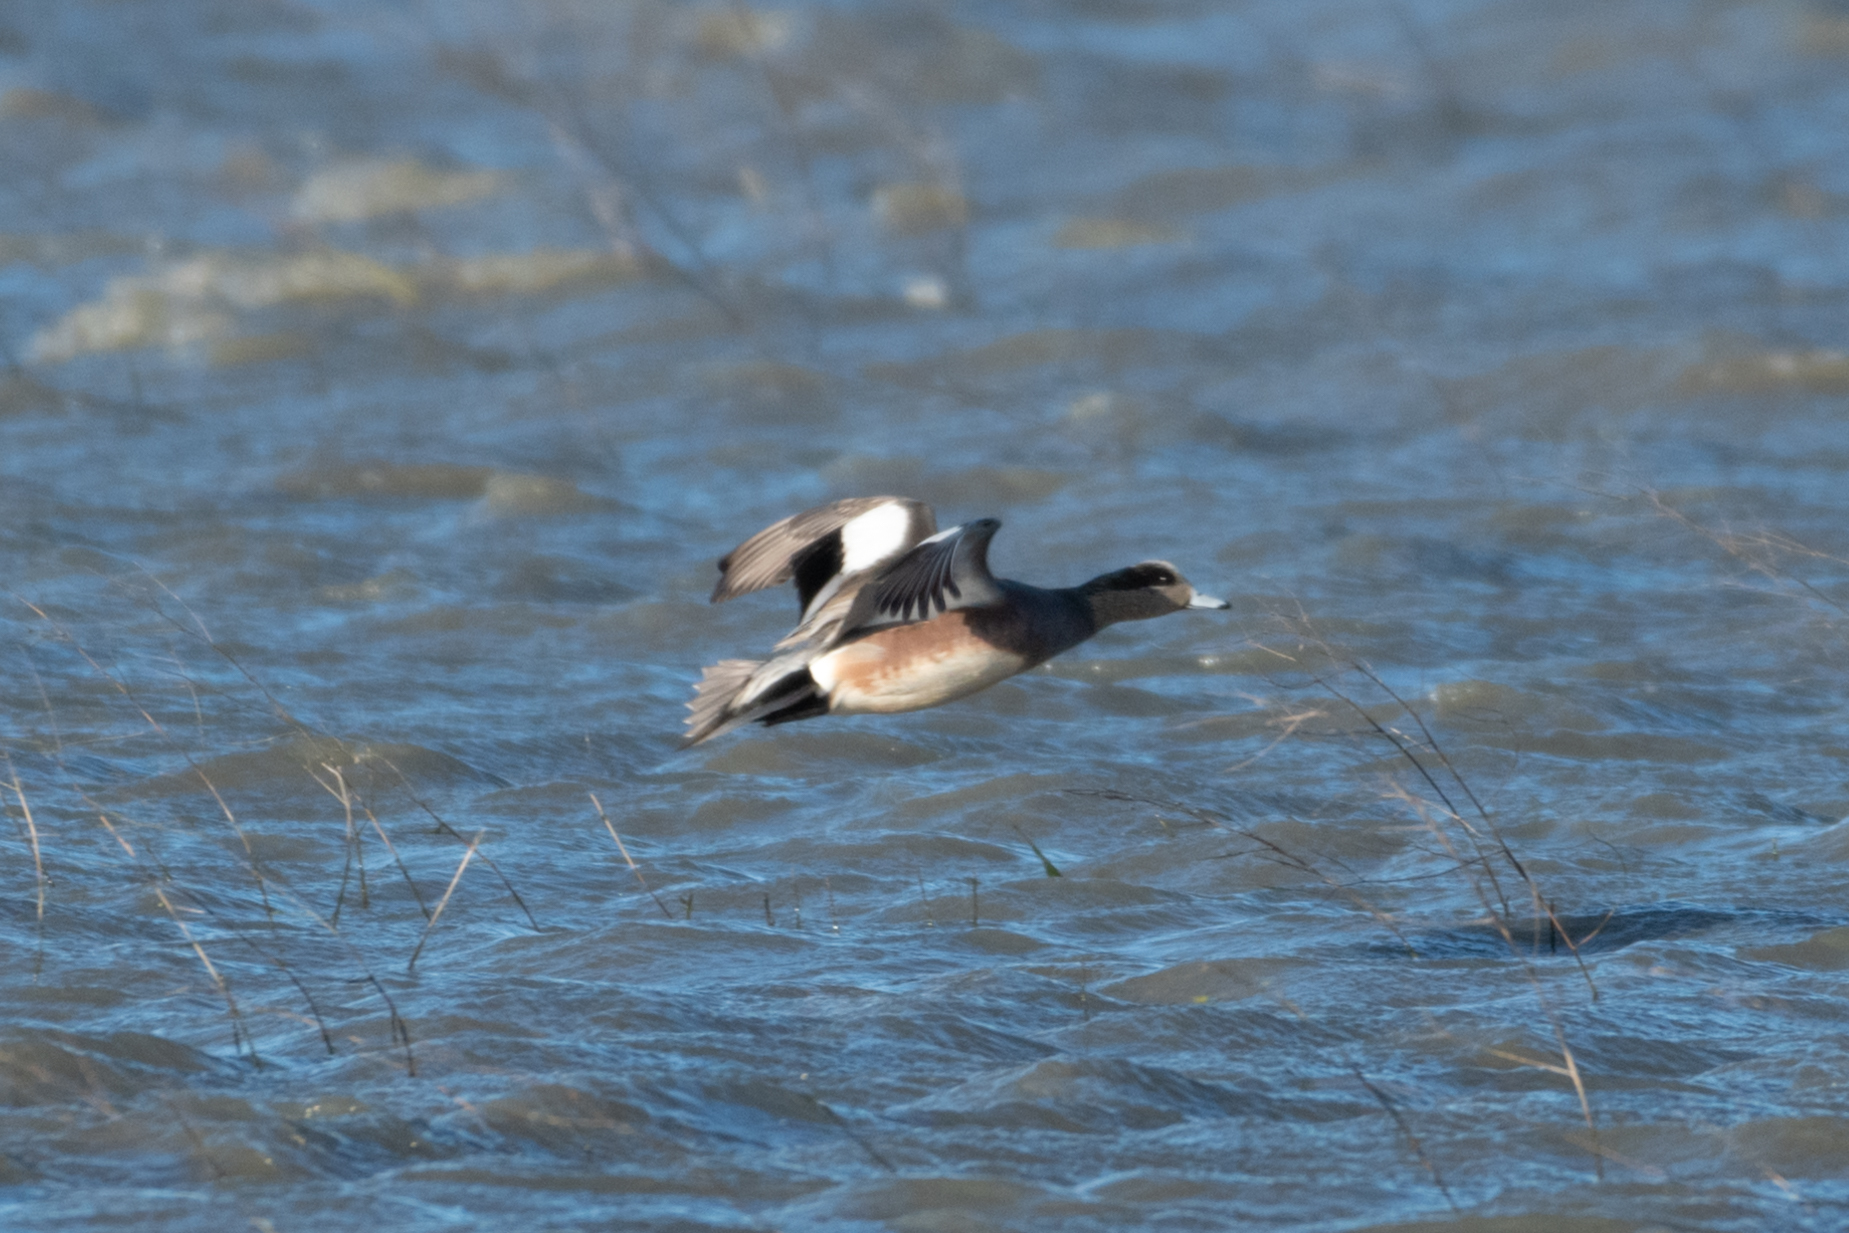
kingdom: Animalia
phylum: Chordata
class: Aves
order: Anseriformes
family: Anatidae
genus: Mareca
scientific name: Mareca americana
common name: American wigeon
